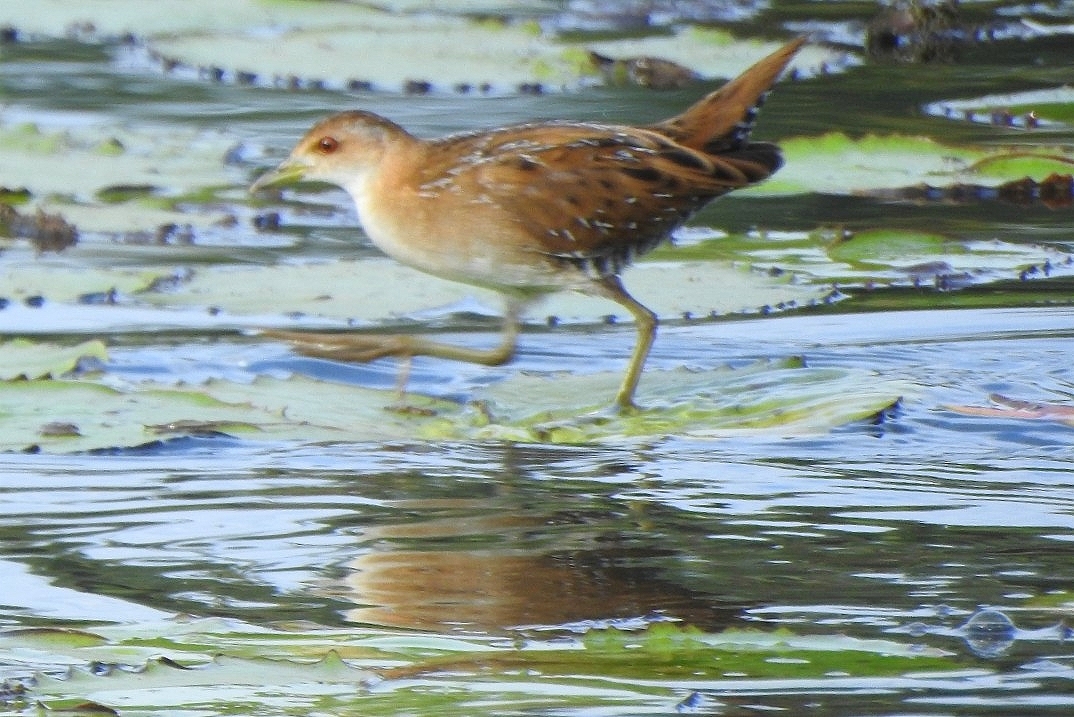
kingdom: Animalia
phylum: Chordata
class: Aves
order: Gruiformes
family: Rallidae
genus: Porzana
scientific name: Porzana pusilla
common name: Baillon's crake
